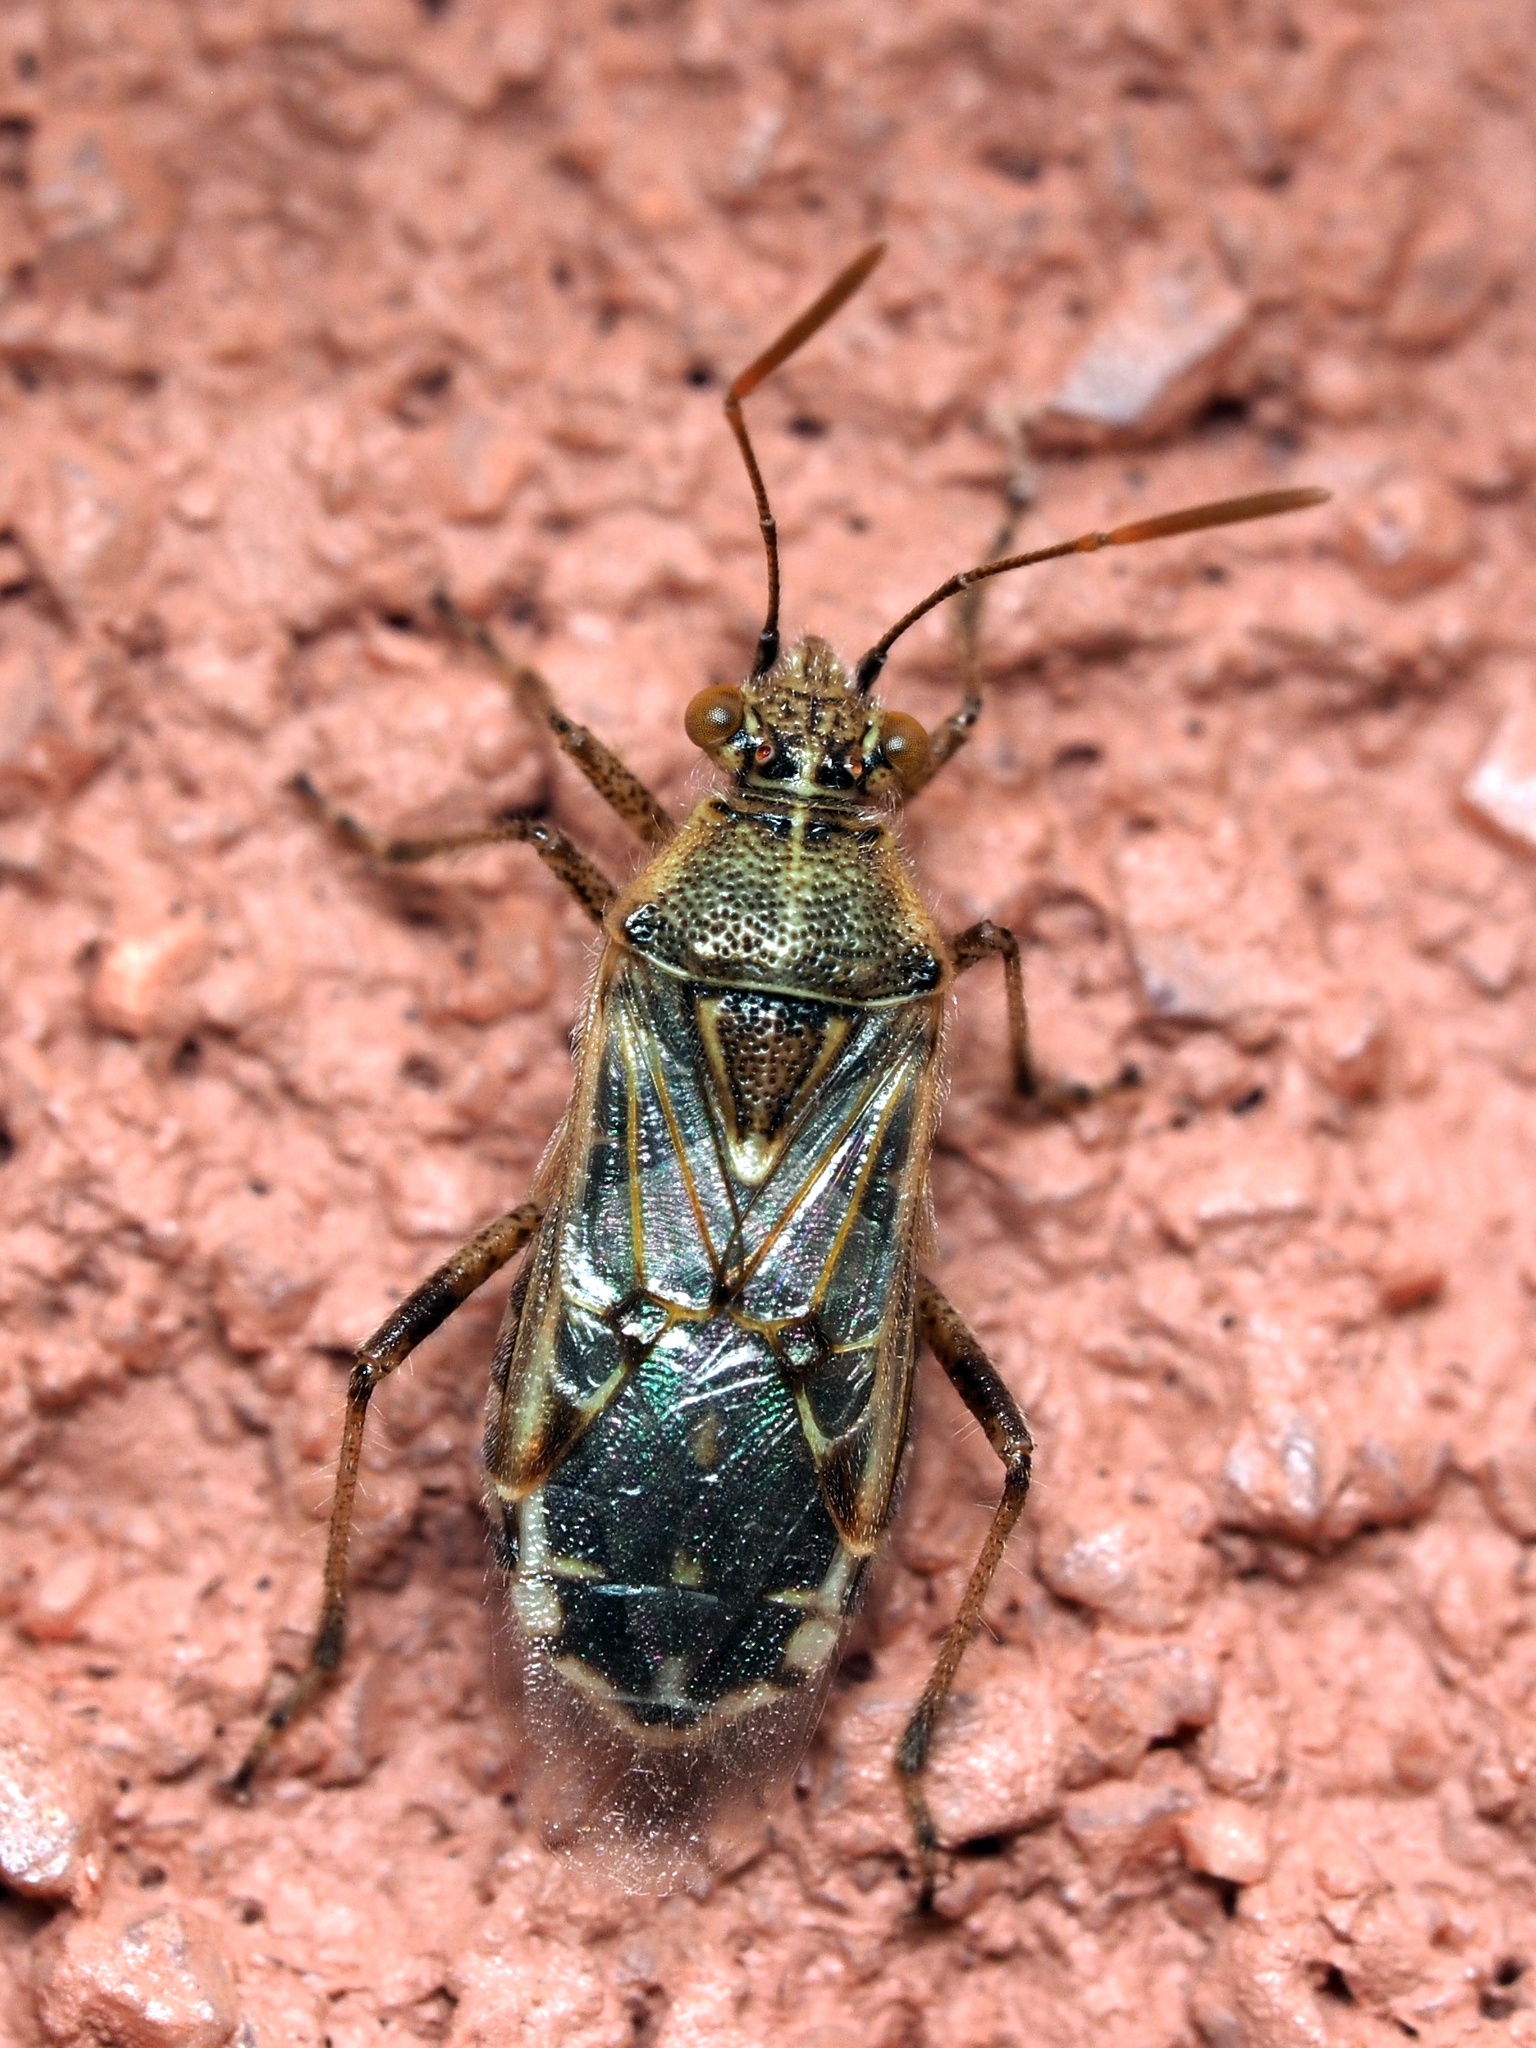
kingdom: Animalia
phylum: Arthropoda
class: Insecta
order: Hemiptera
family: Rhopalidae
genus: Liorhyssus
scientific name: Liorhyssus hyalinus
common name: Scentless plant bug
